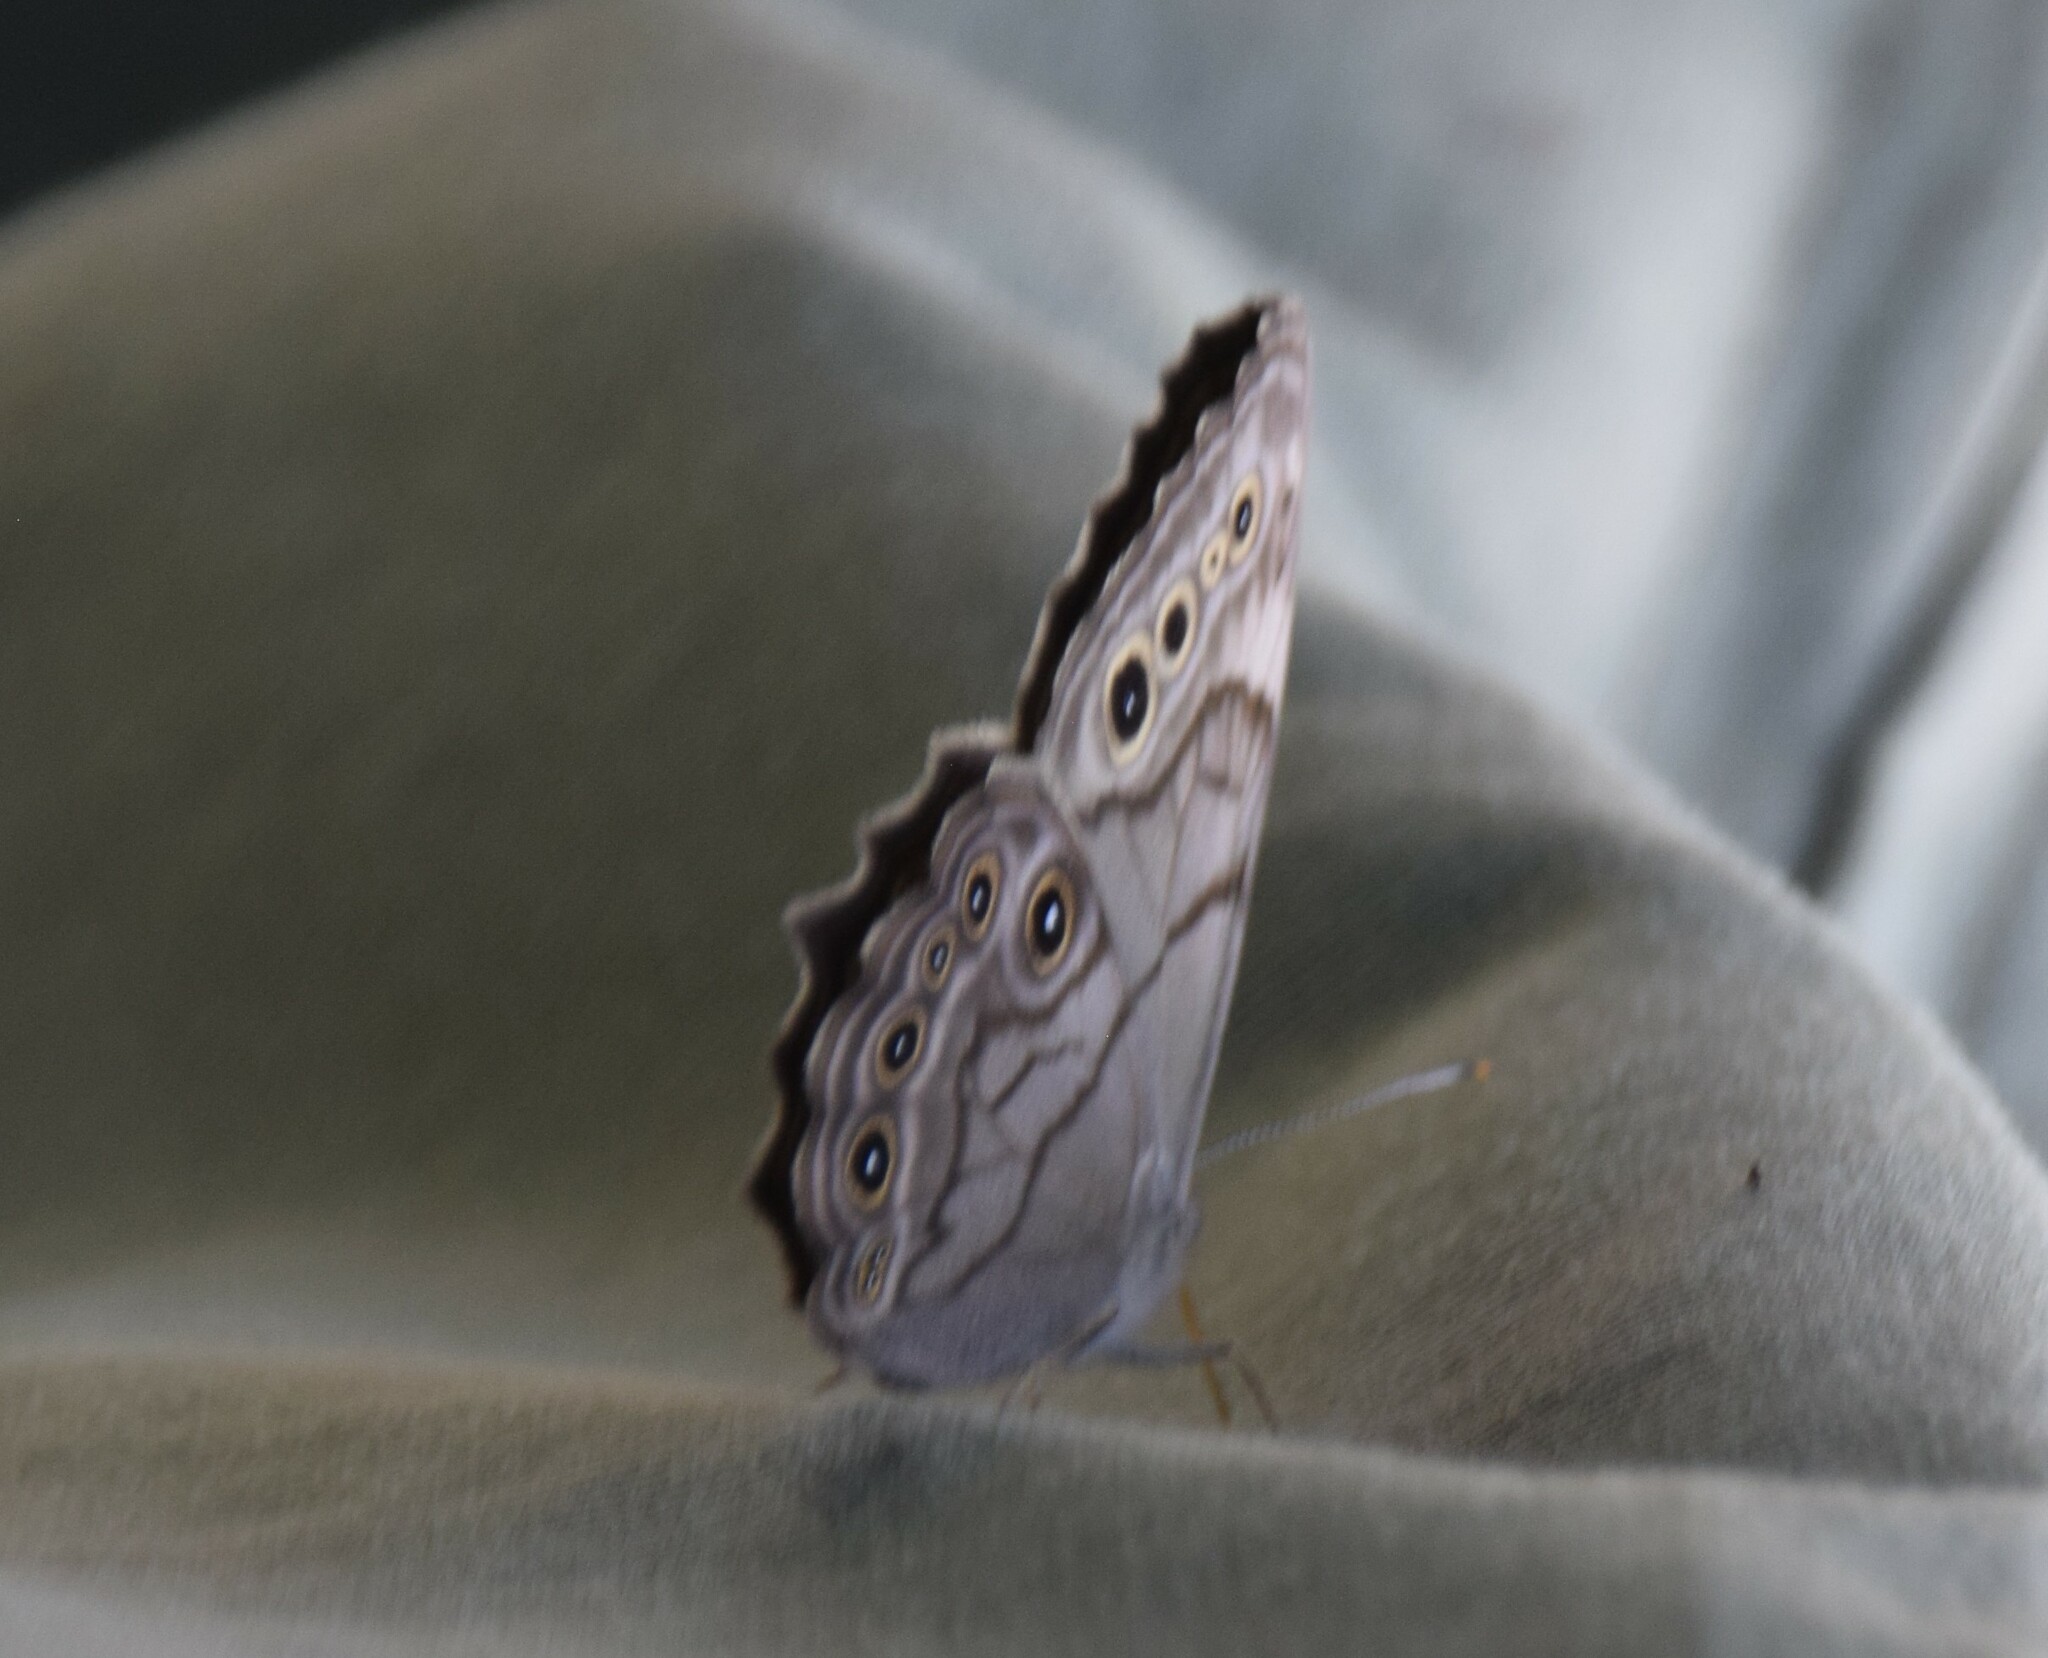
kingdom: Animalia
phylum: Arthropoda
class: Insecta
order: Lepidoptera
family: Nymphalidae
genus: Lethe
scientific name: Lethe anthedon
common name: Northern pearly-eye
